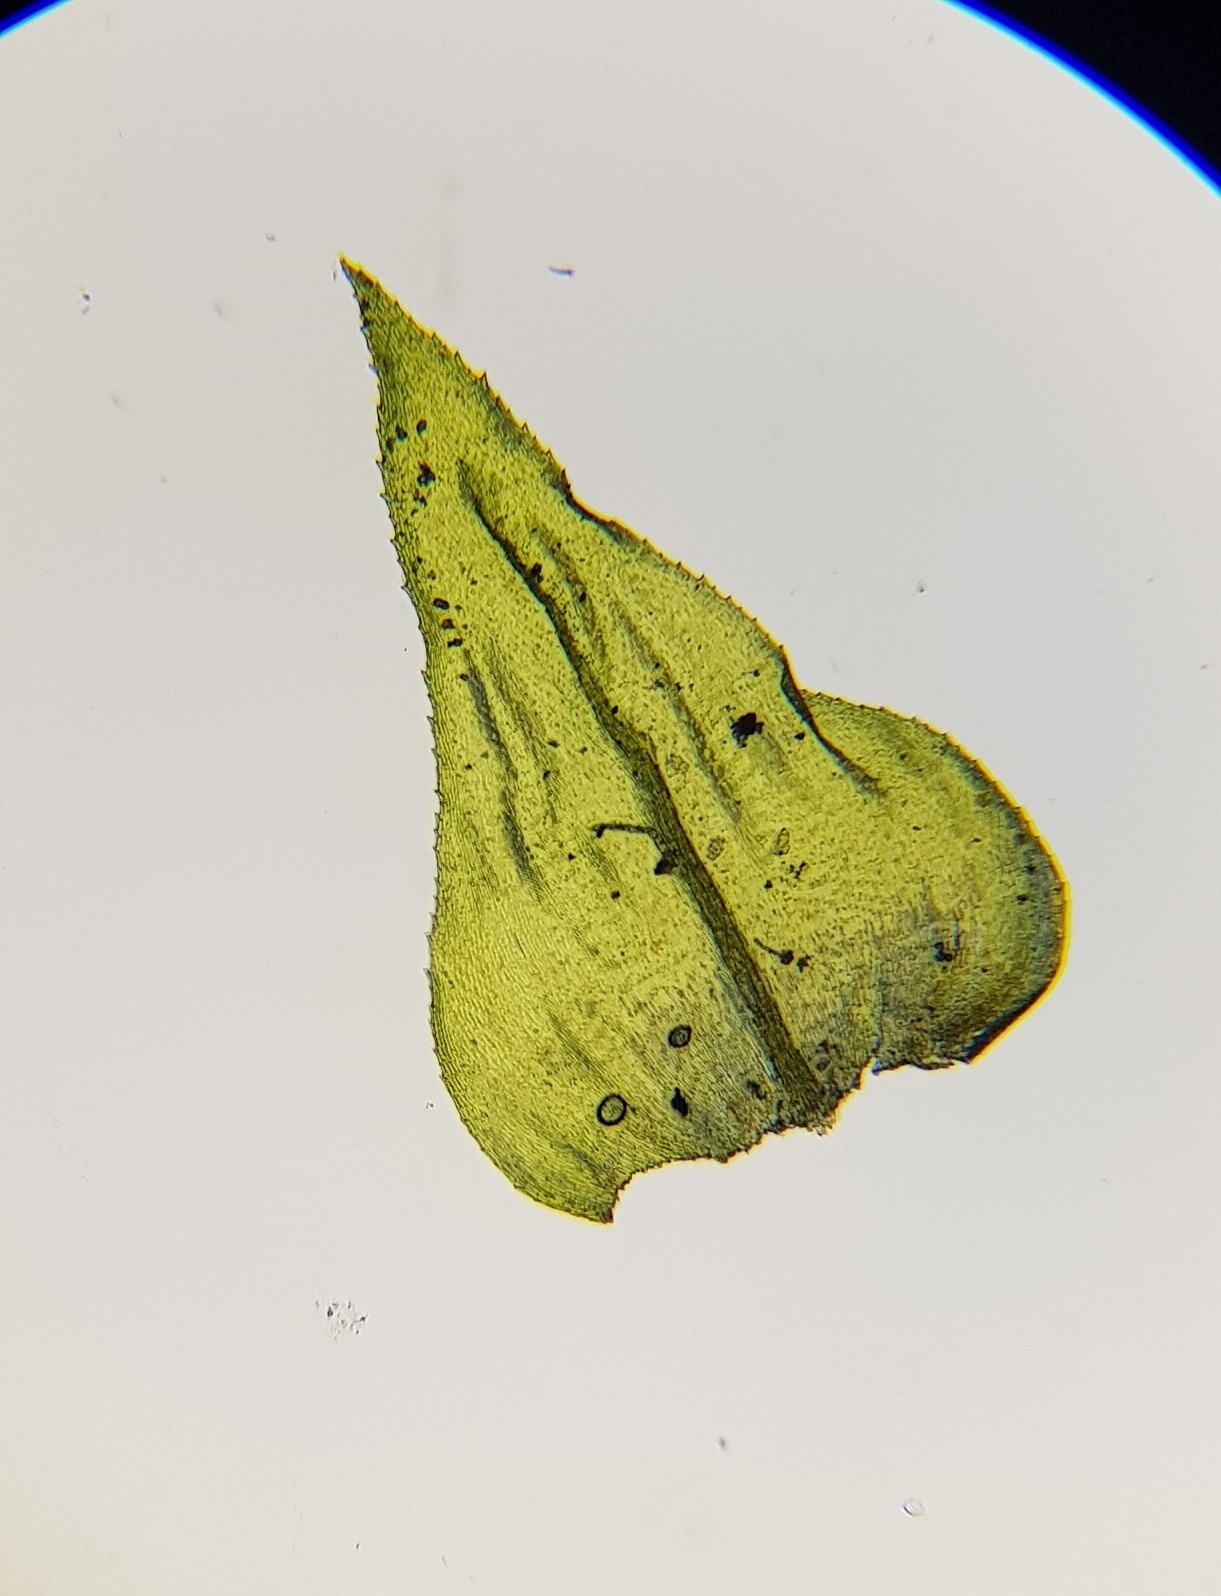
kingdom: Plantae
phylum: Bryophyta
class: Bryopsida
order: Hypnales
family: Brachytheciaceae
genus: Eurhynchium
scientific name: Eurhynchium striatum
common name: Common striated feather-moss
